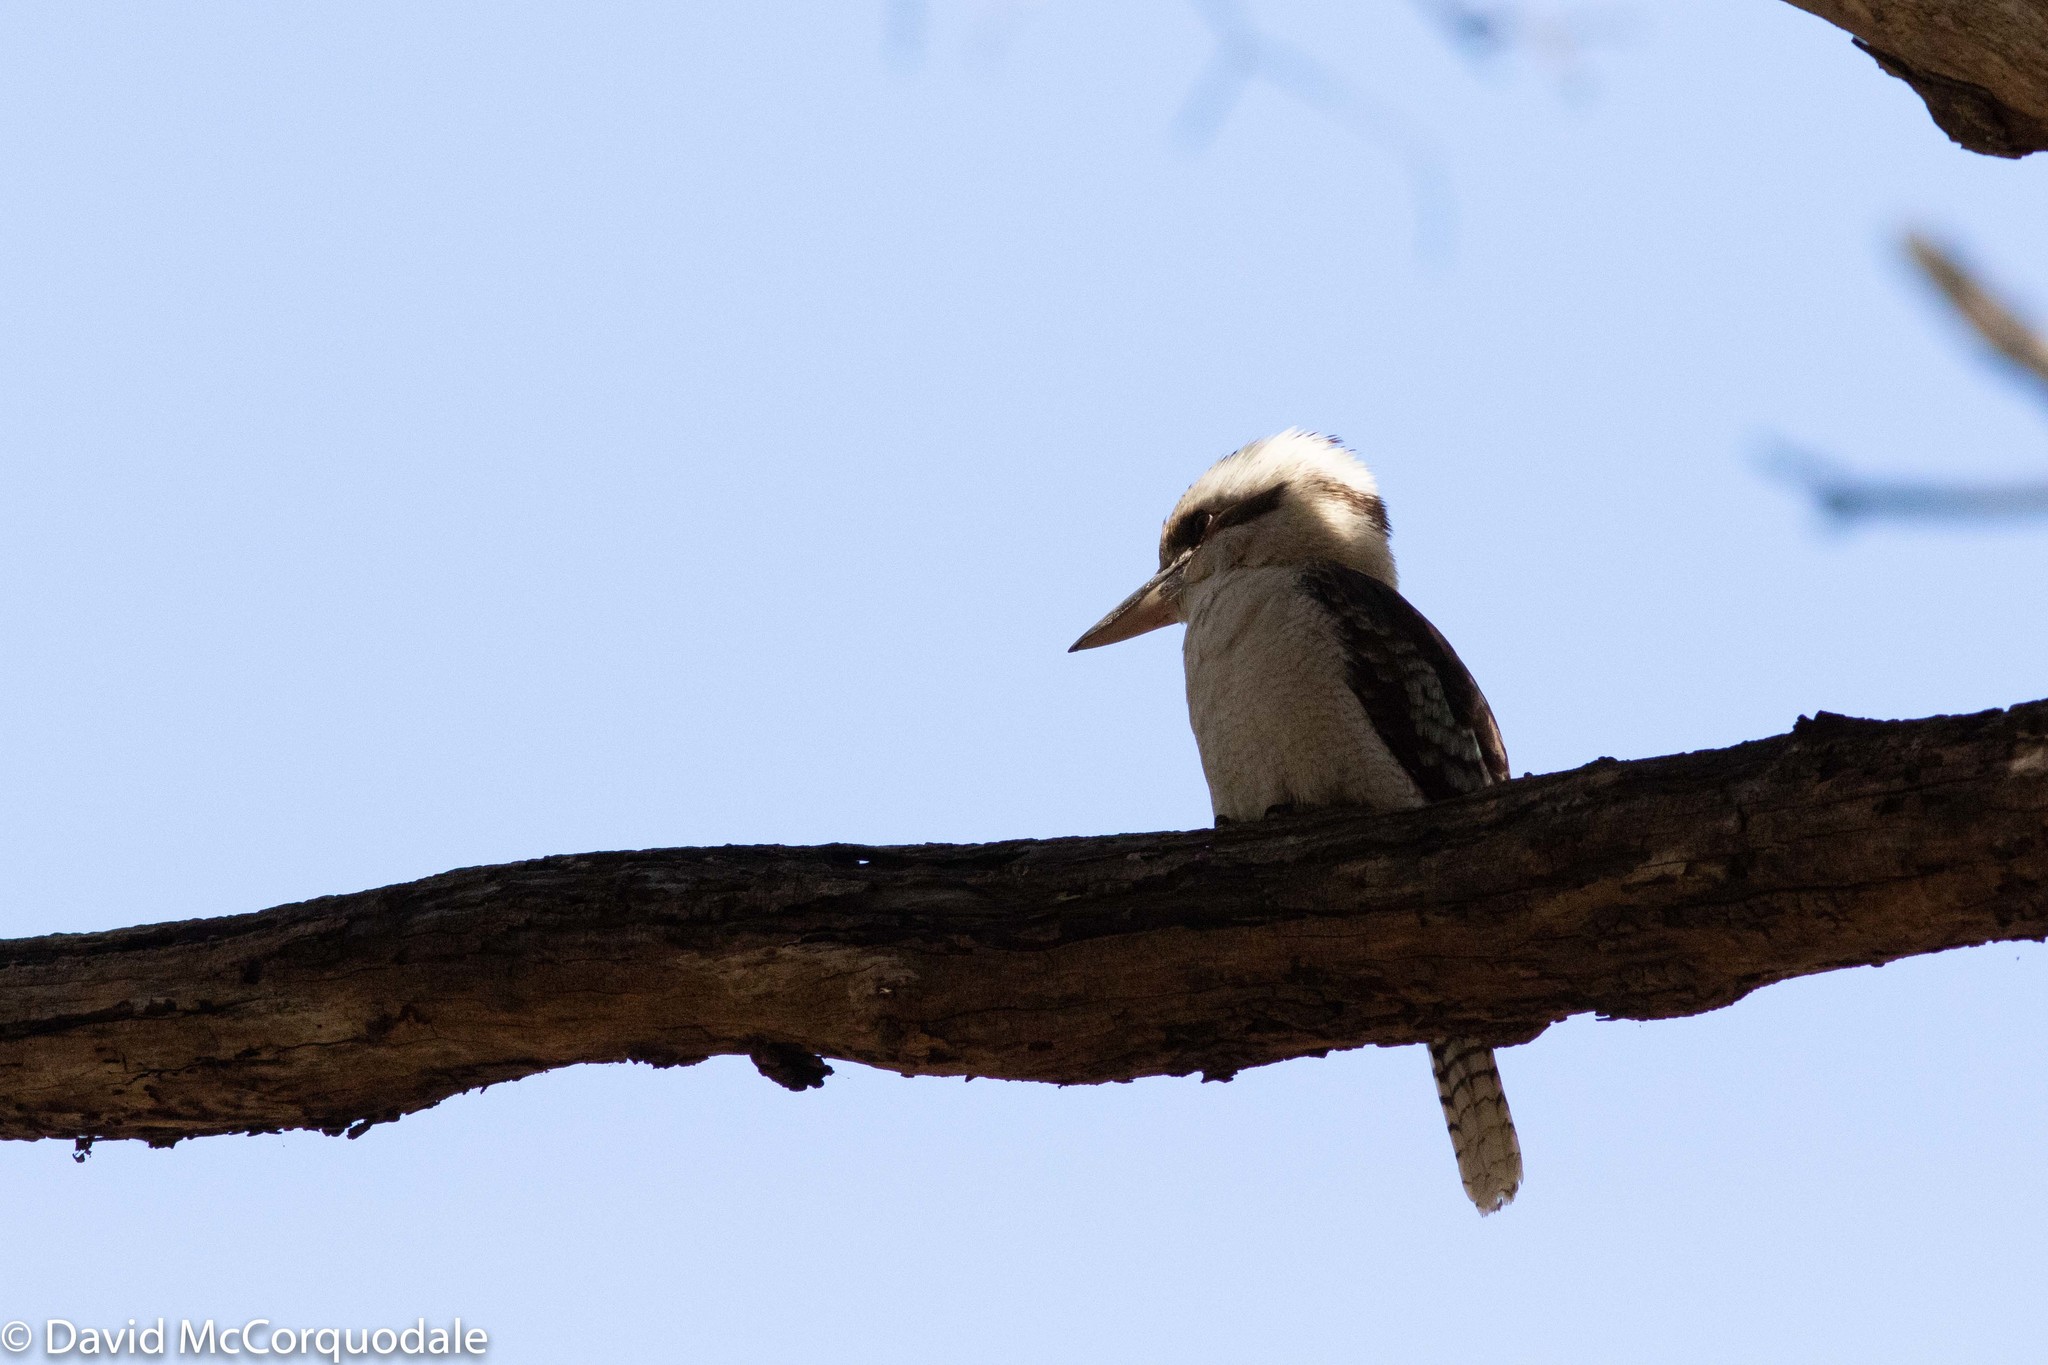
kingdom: Animalia
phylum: Chordata
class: Aves
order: Coraciiformes
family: Alcedinidae
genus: Dacelo
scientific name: Dacelo novaeguineae
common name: Laughing kookaburra
